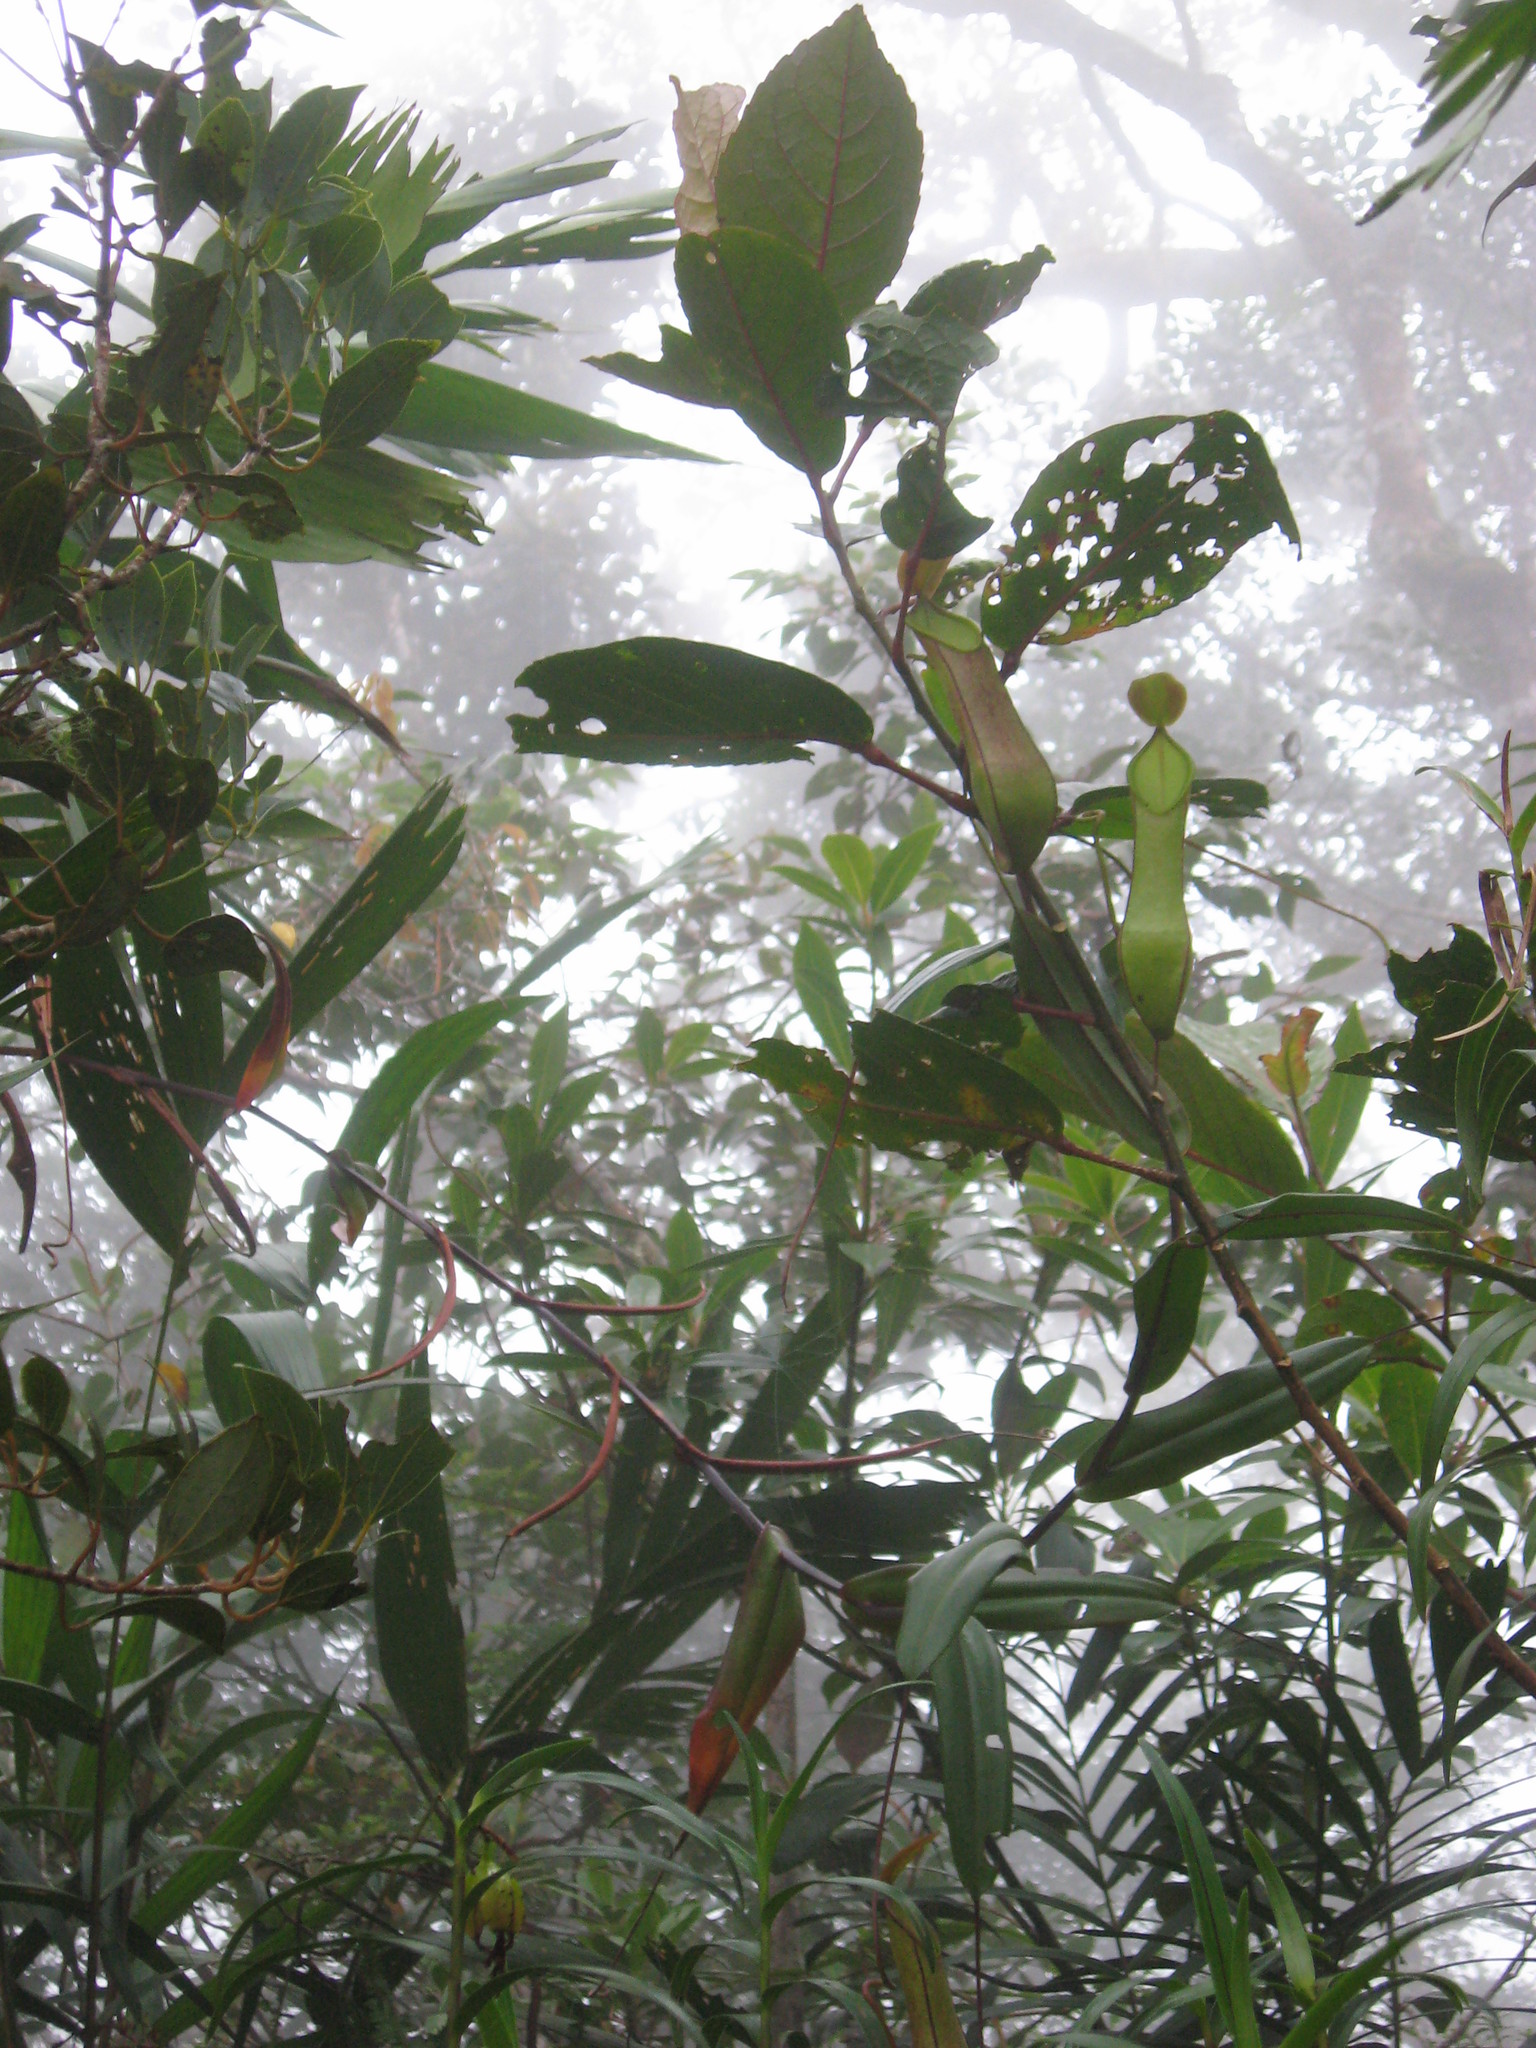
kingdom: Plantae
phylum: Tracheophyta
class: Magnoliopsida
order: Caryophyllales
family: Nepenthaceae
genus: Nepenthes
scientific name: Nepenthes tentaculata
